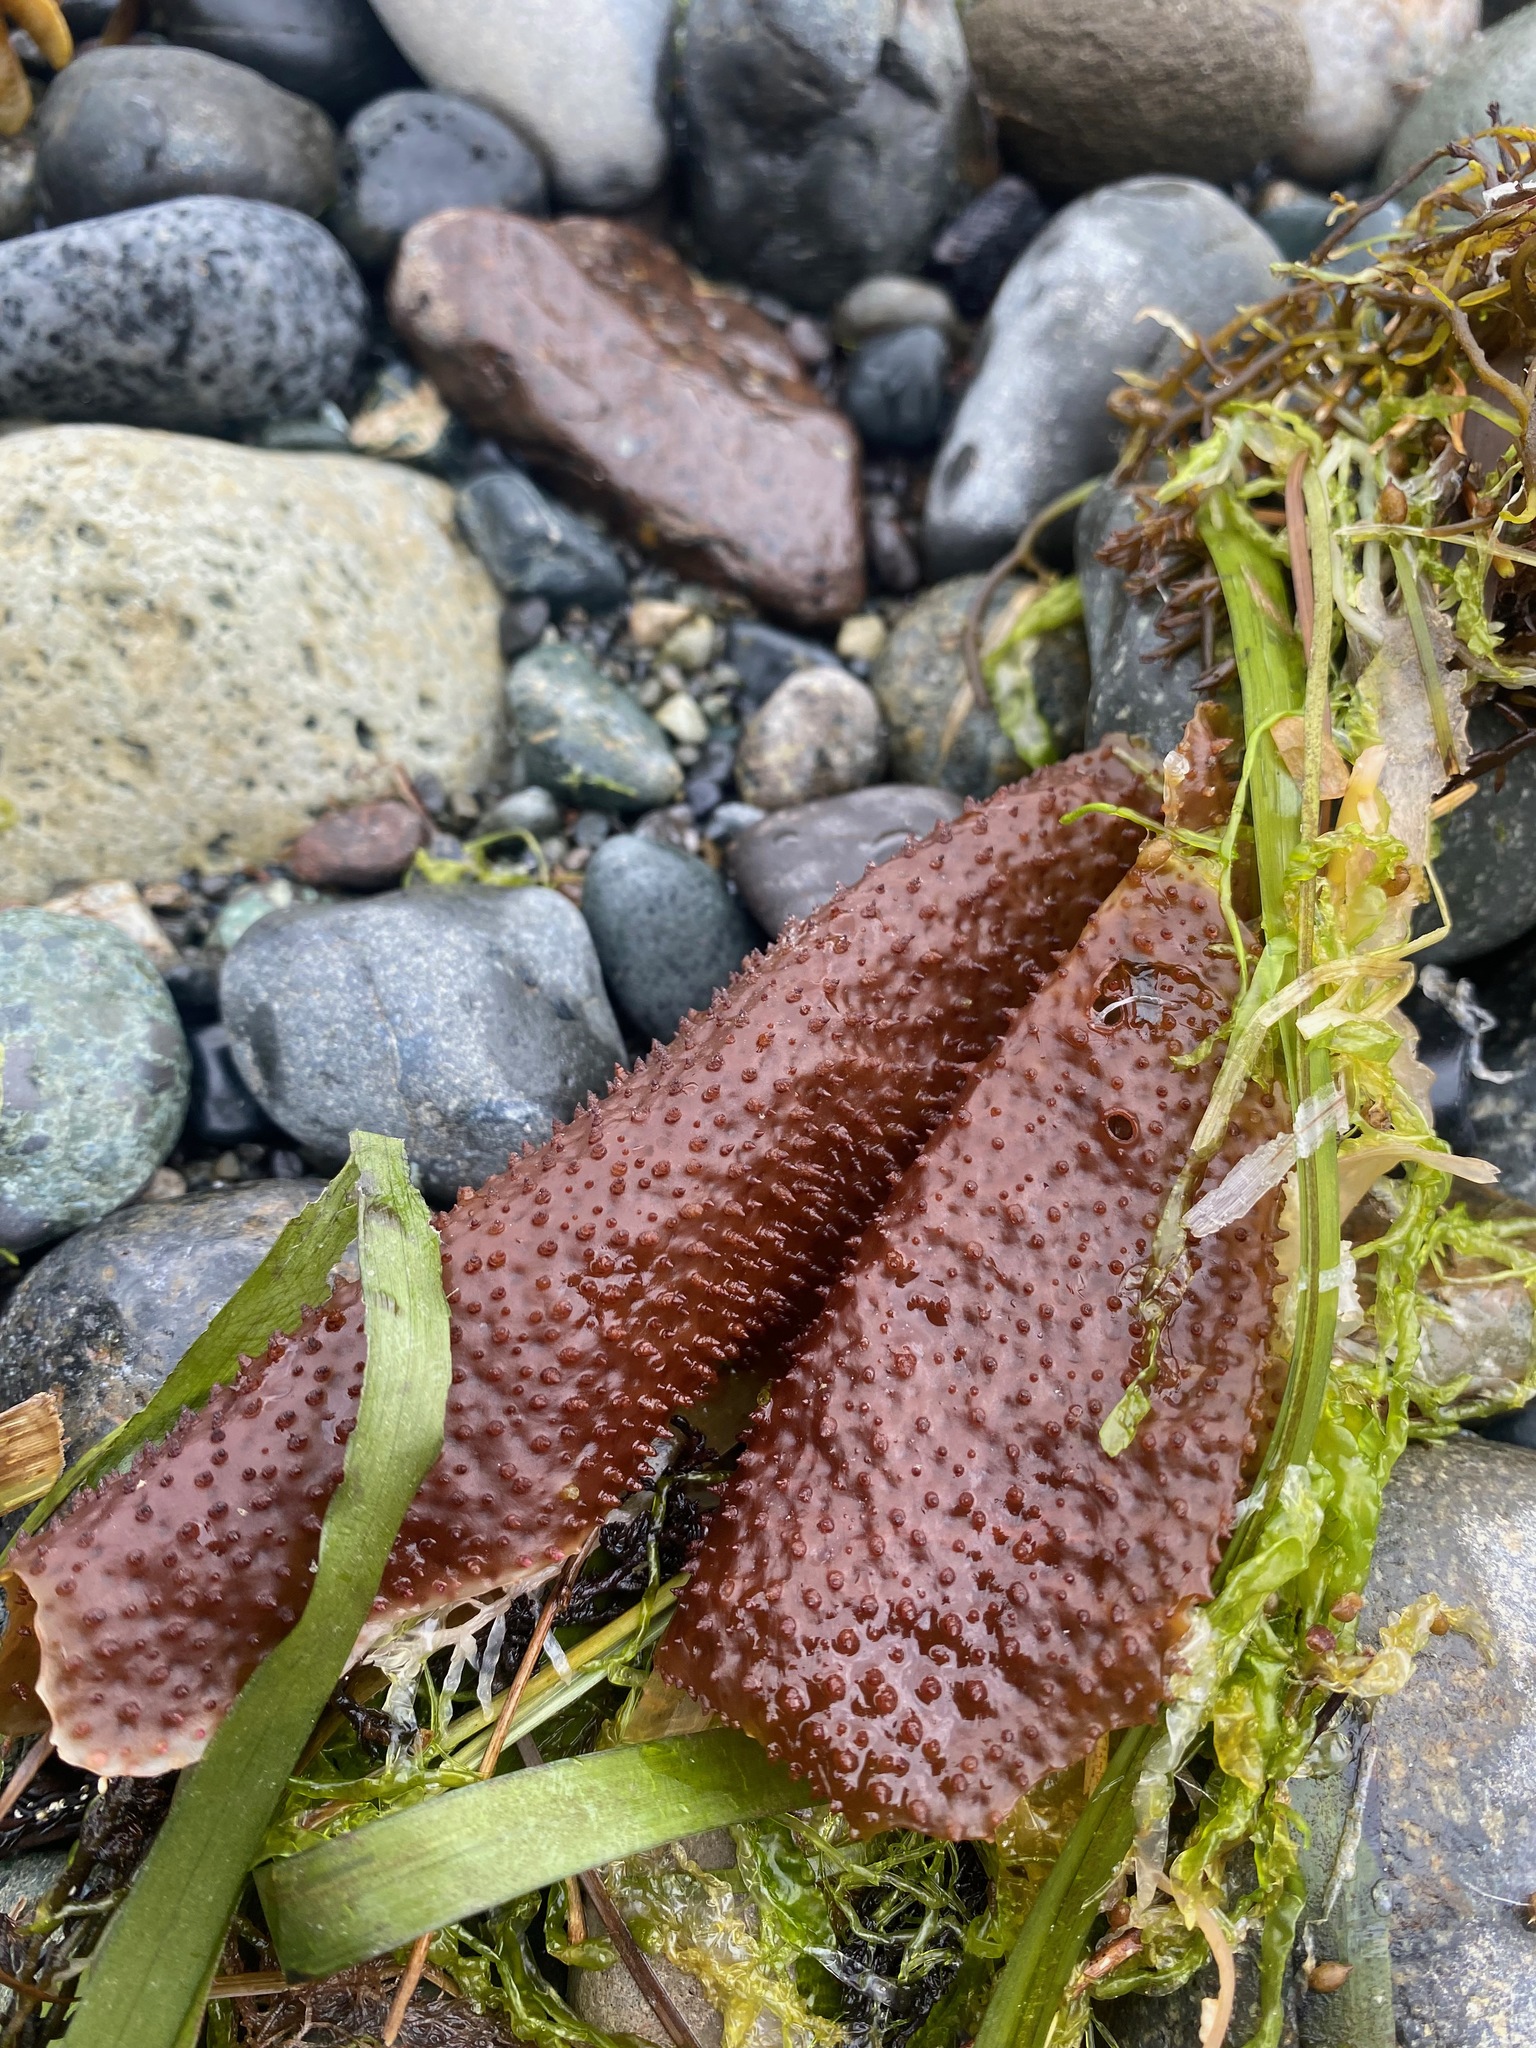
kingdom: Plantae
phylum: Rhodophyta
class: Florideophyceae
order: Gigartinales
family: Gigartinaceae
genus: Chondracanthus
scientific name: Chondracanthus exasperatus
